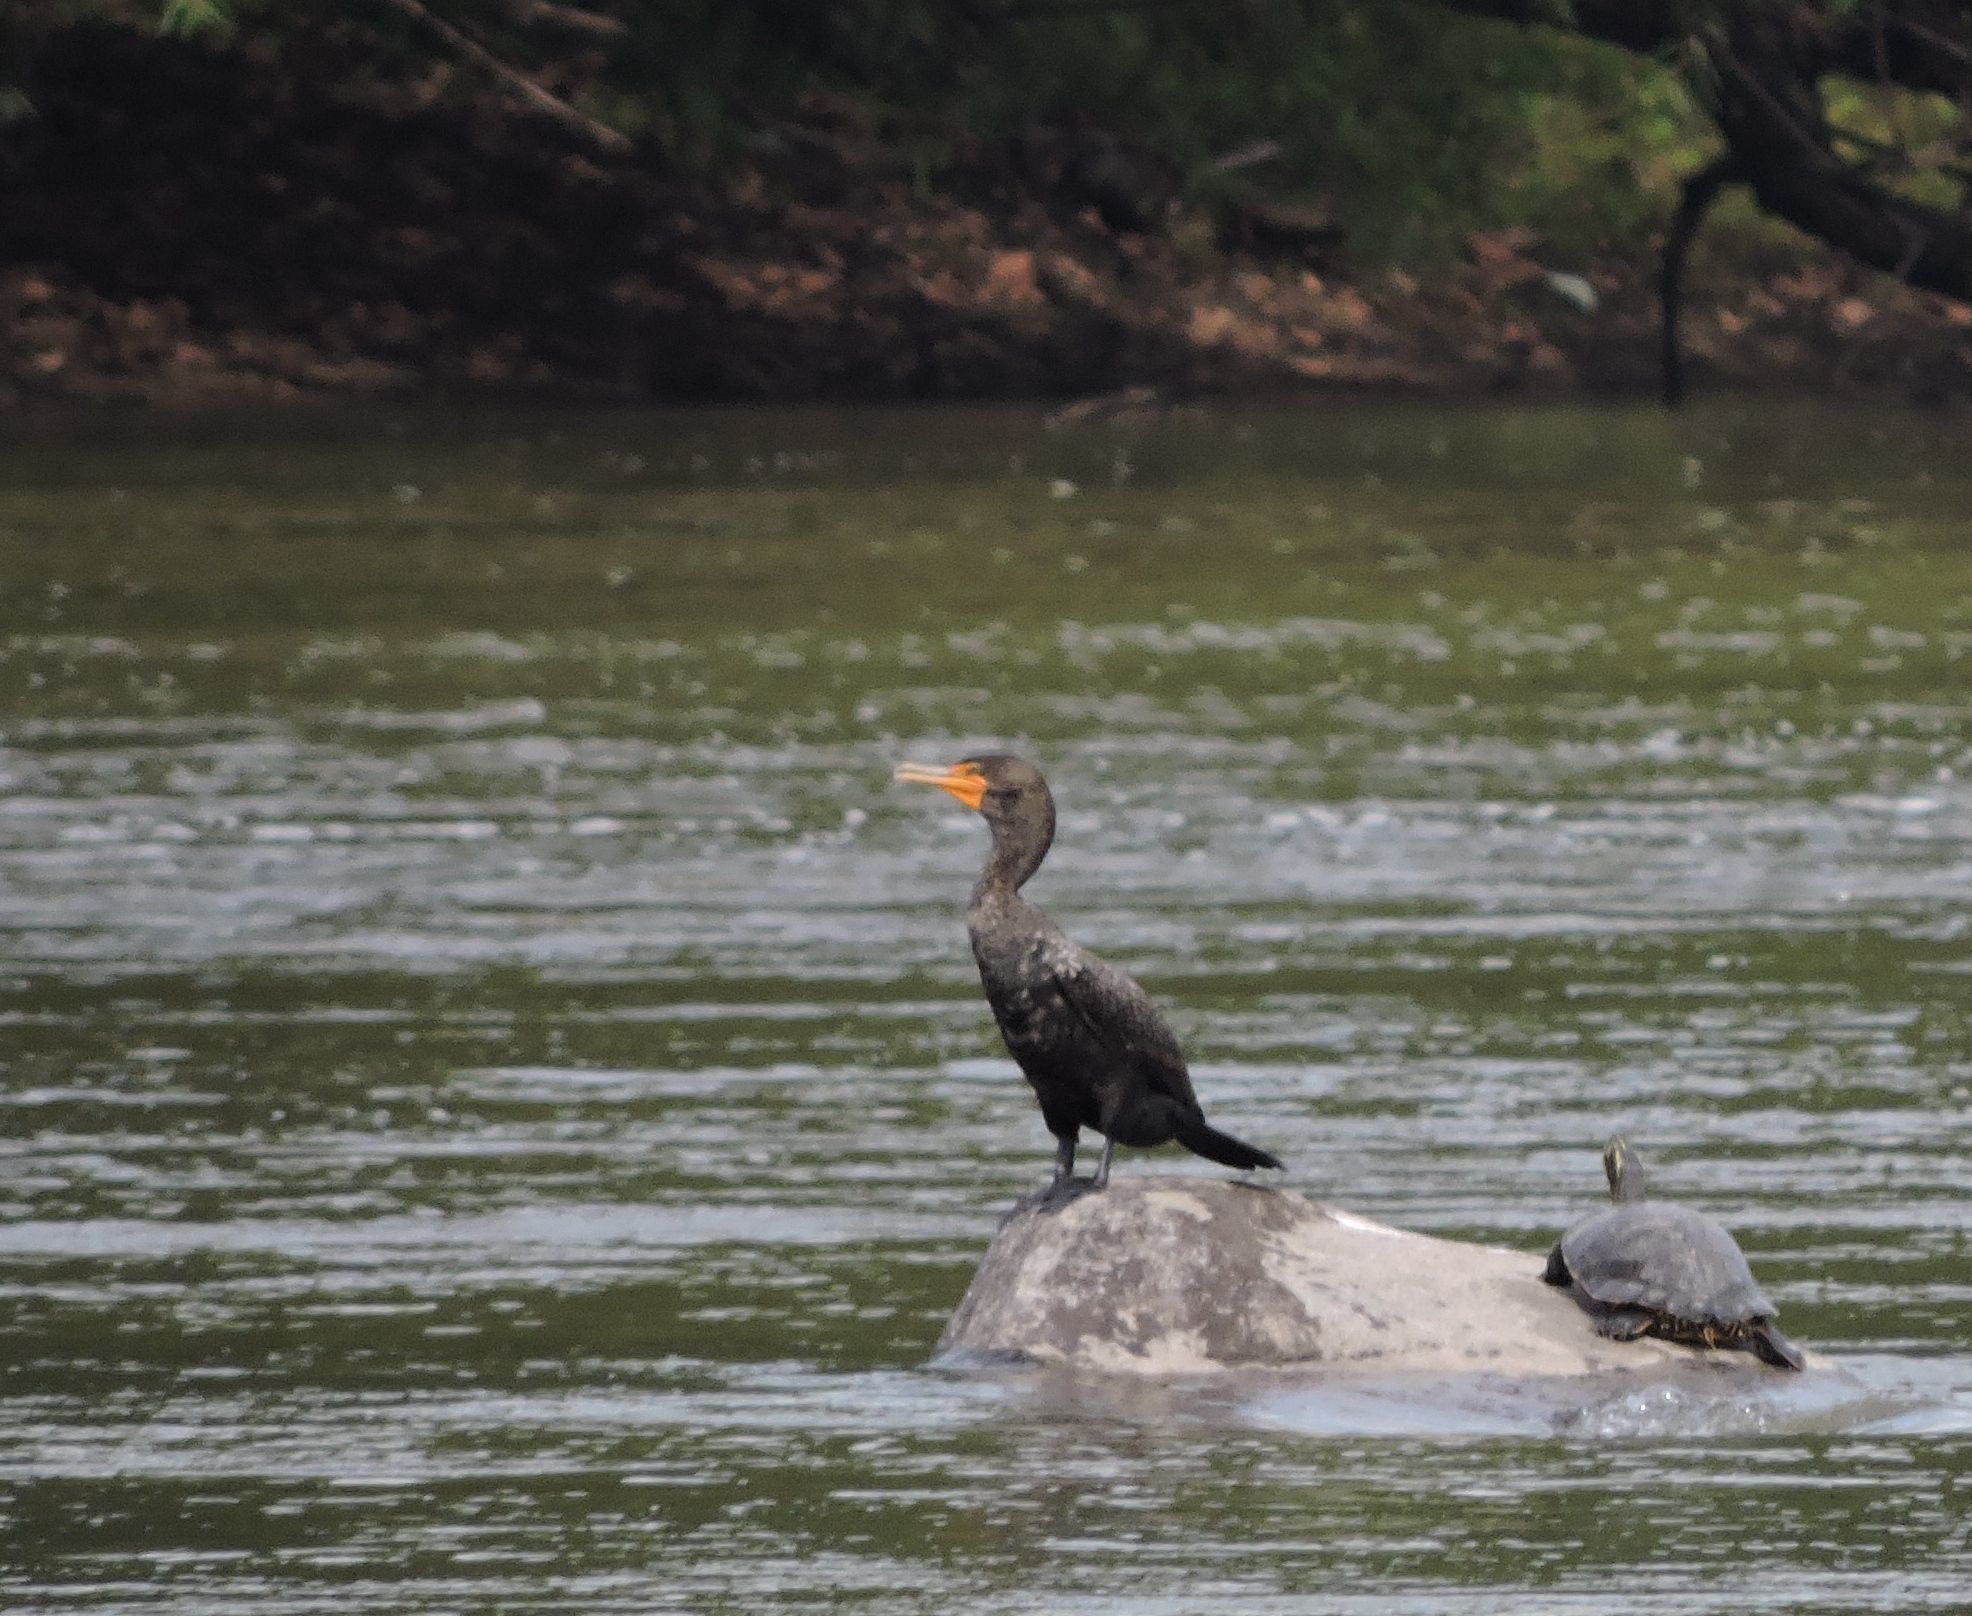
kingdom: Animalia
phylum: Chordata
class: Aves
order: Suliformes
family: Phalacrocoracidae
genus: Phalacrocorax
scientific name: Phalacrocorax auritus
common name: Double-crested cormorant
